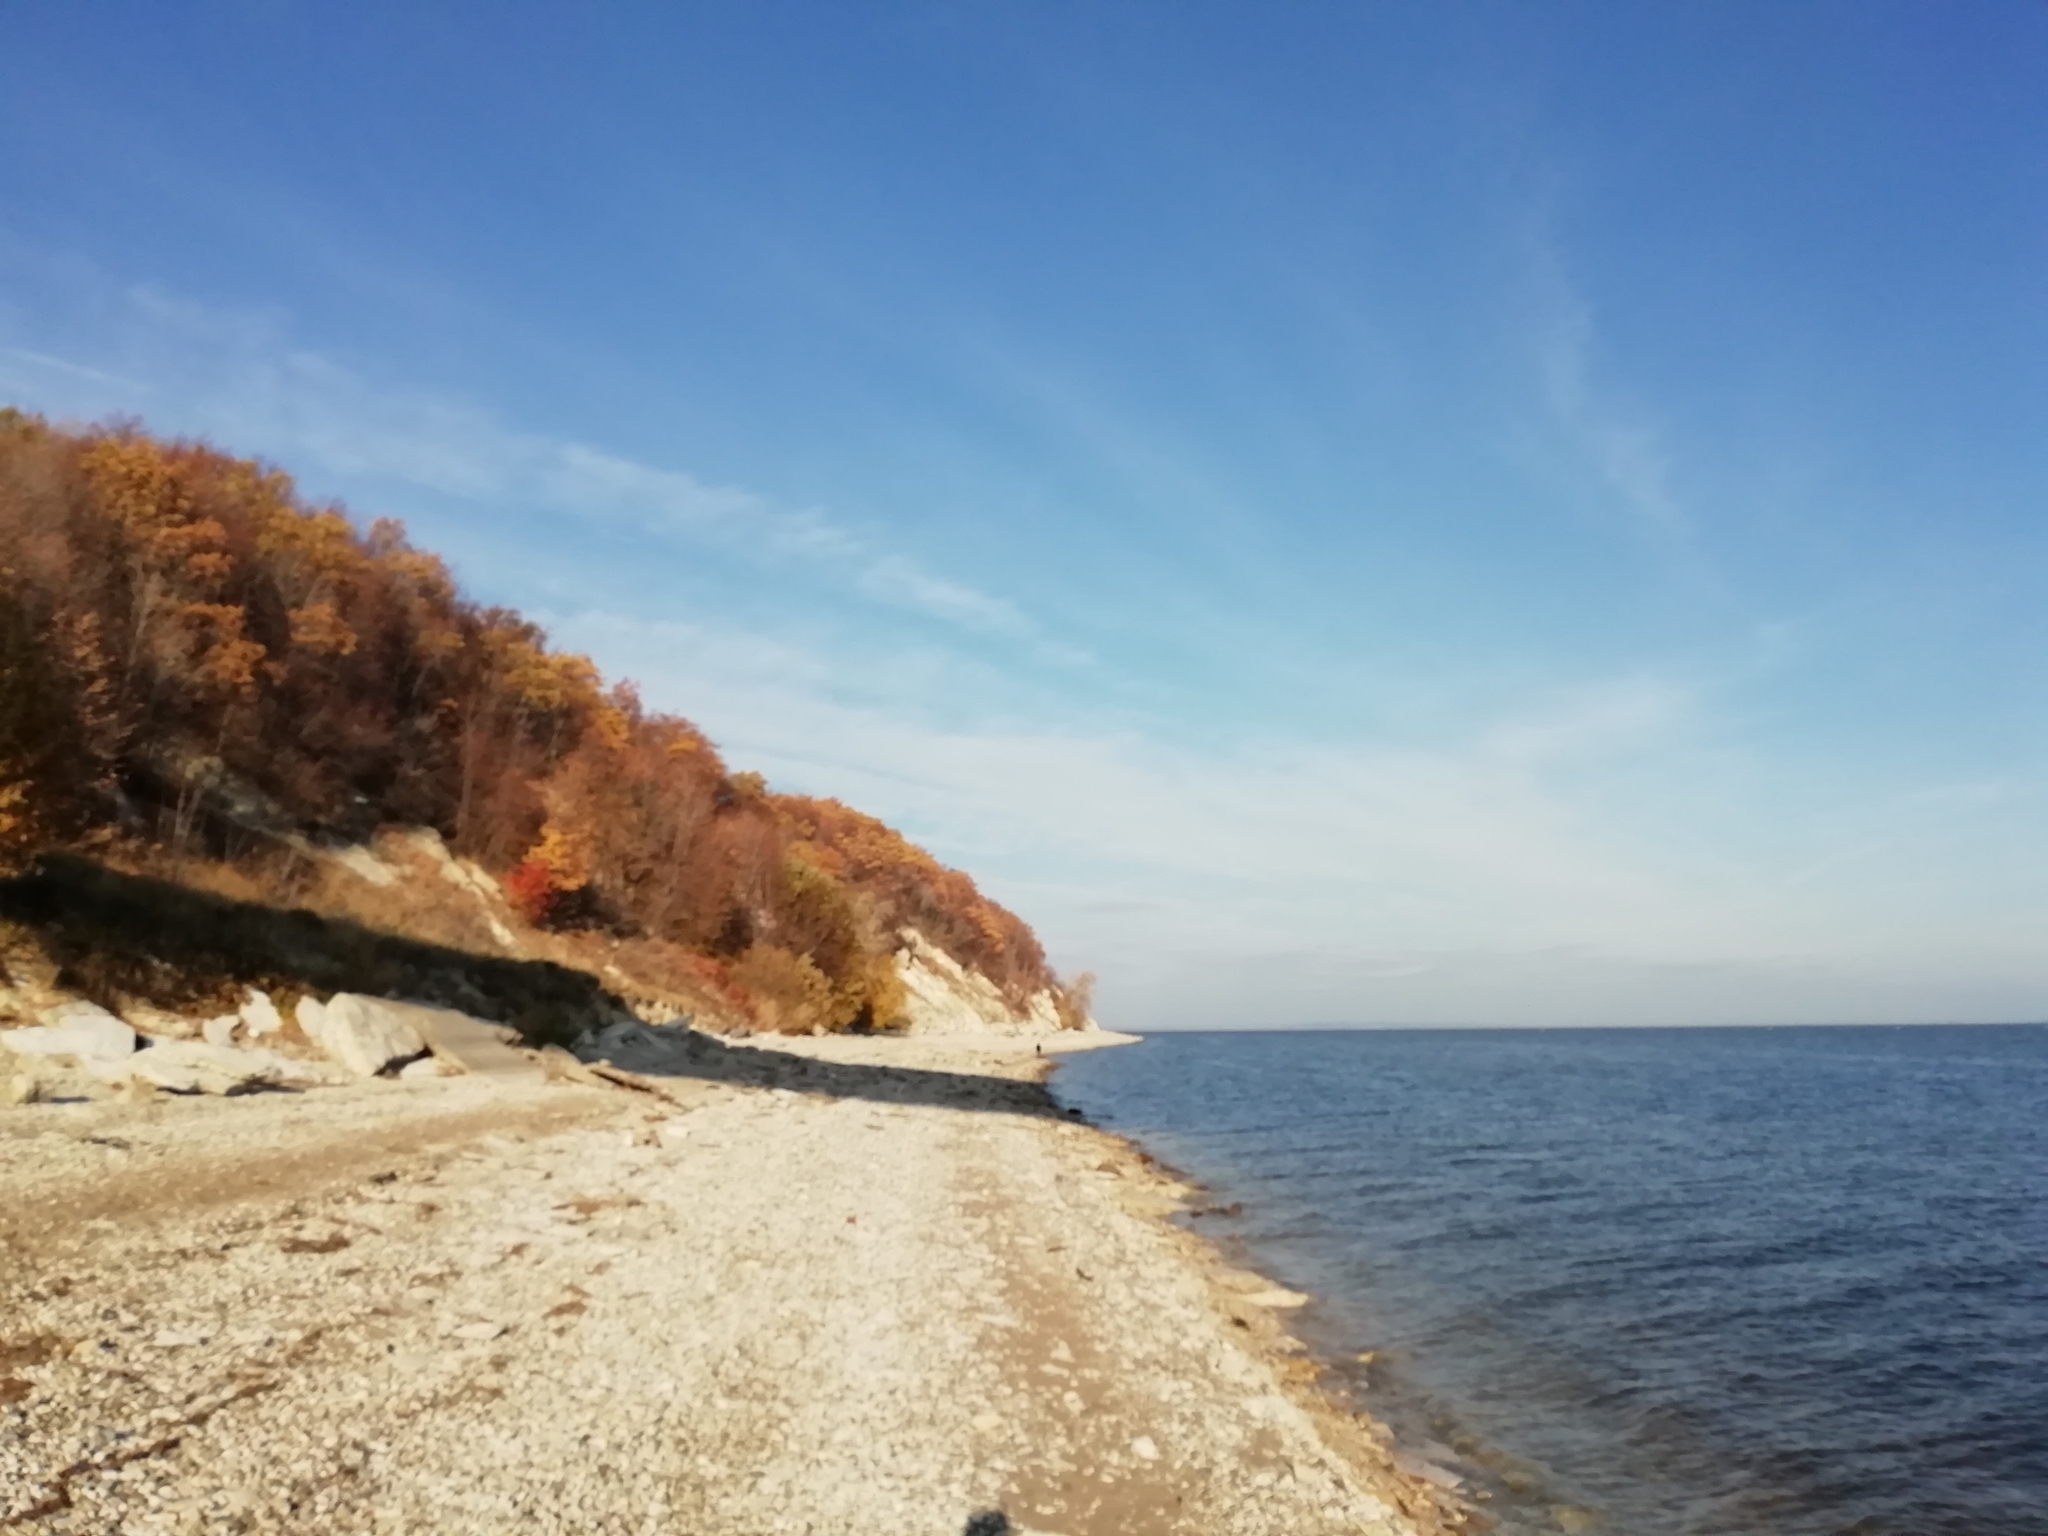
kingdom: Animalia
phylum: Chordata
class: Aves
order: Charadriiformes
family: Laridae
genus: Ichthyaetus
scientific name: Ichthyaetus ichthyaetus
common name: Pallas's gull
